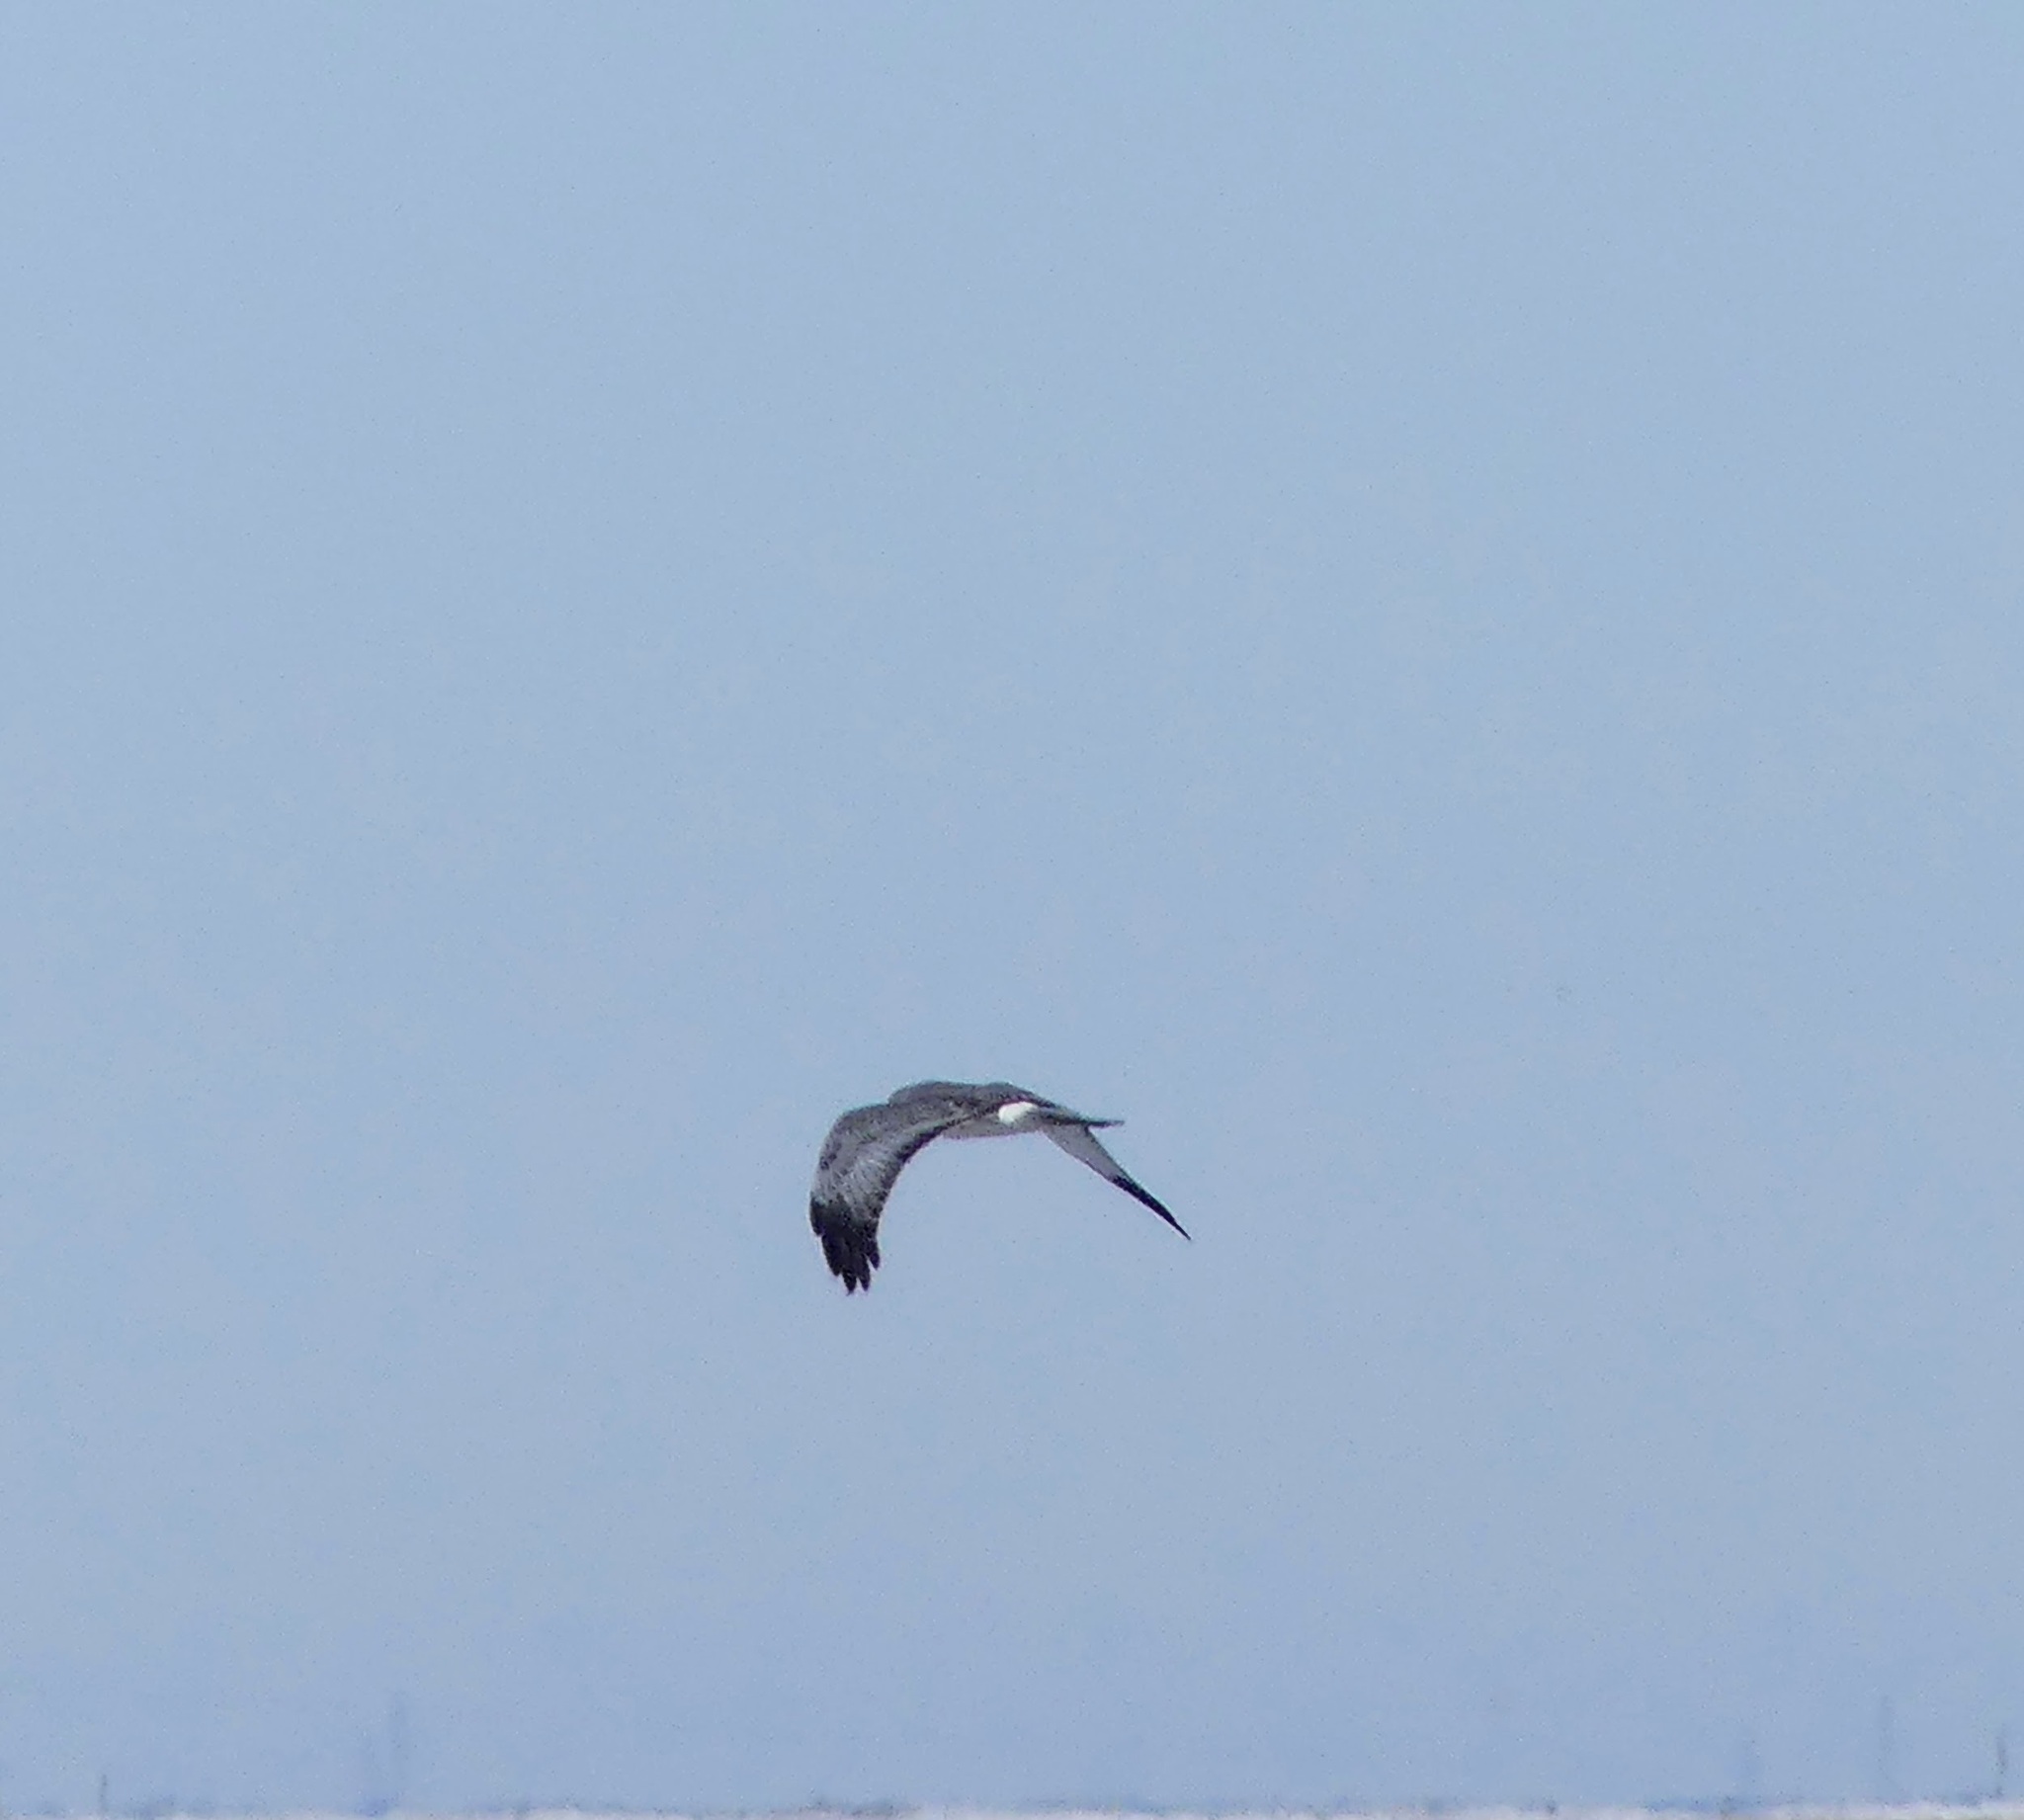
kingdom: Animalia
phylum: Chordata
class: Aves
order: Accipitriformes
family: Accipitridae
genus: Circus
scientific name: Circus cyaneus
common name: Hen harrier
